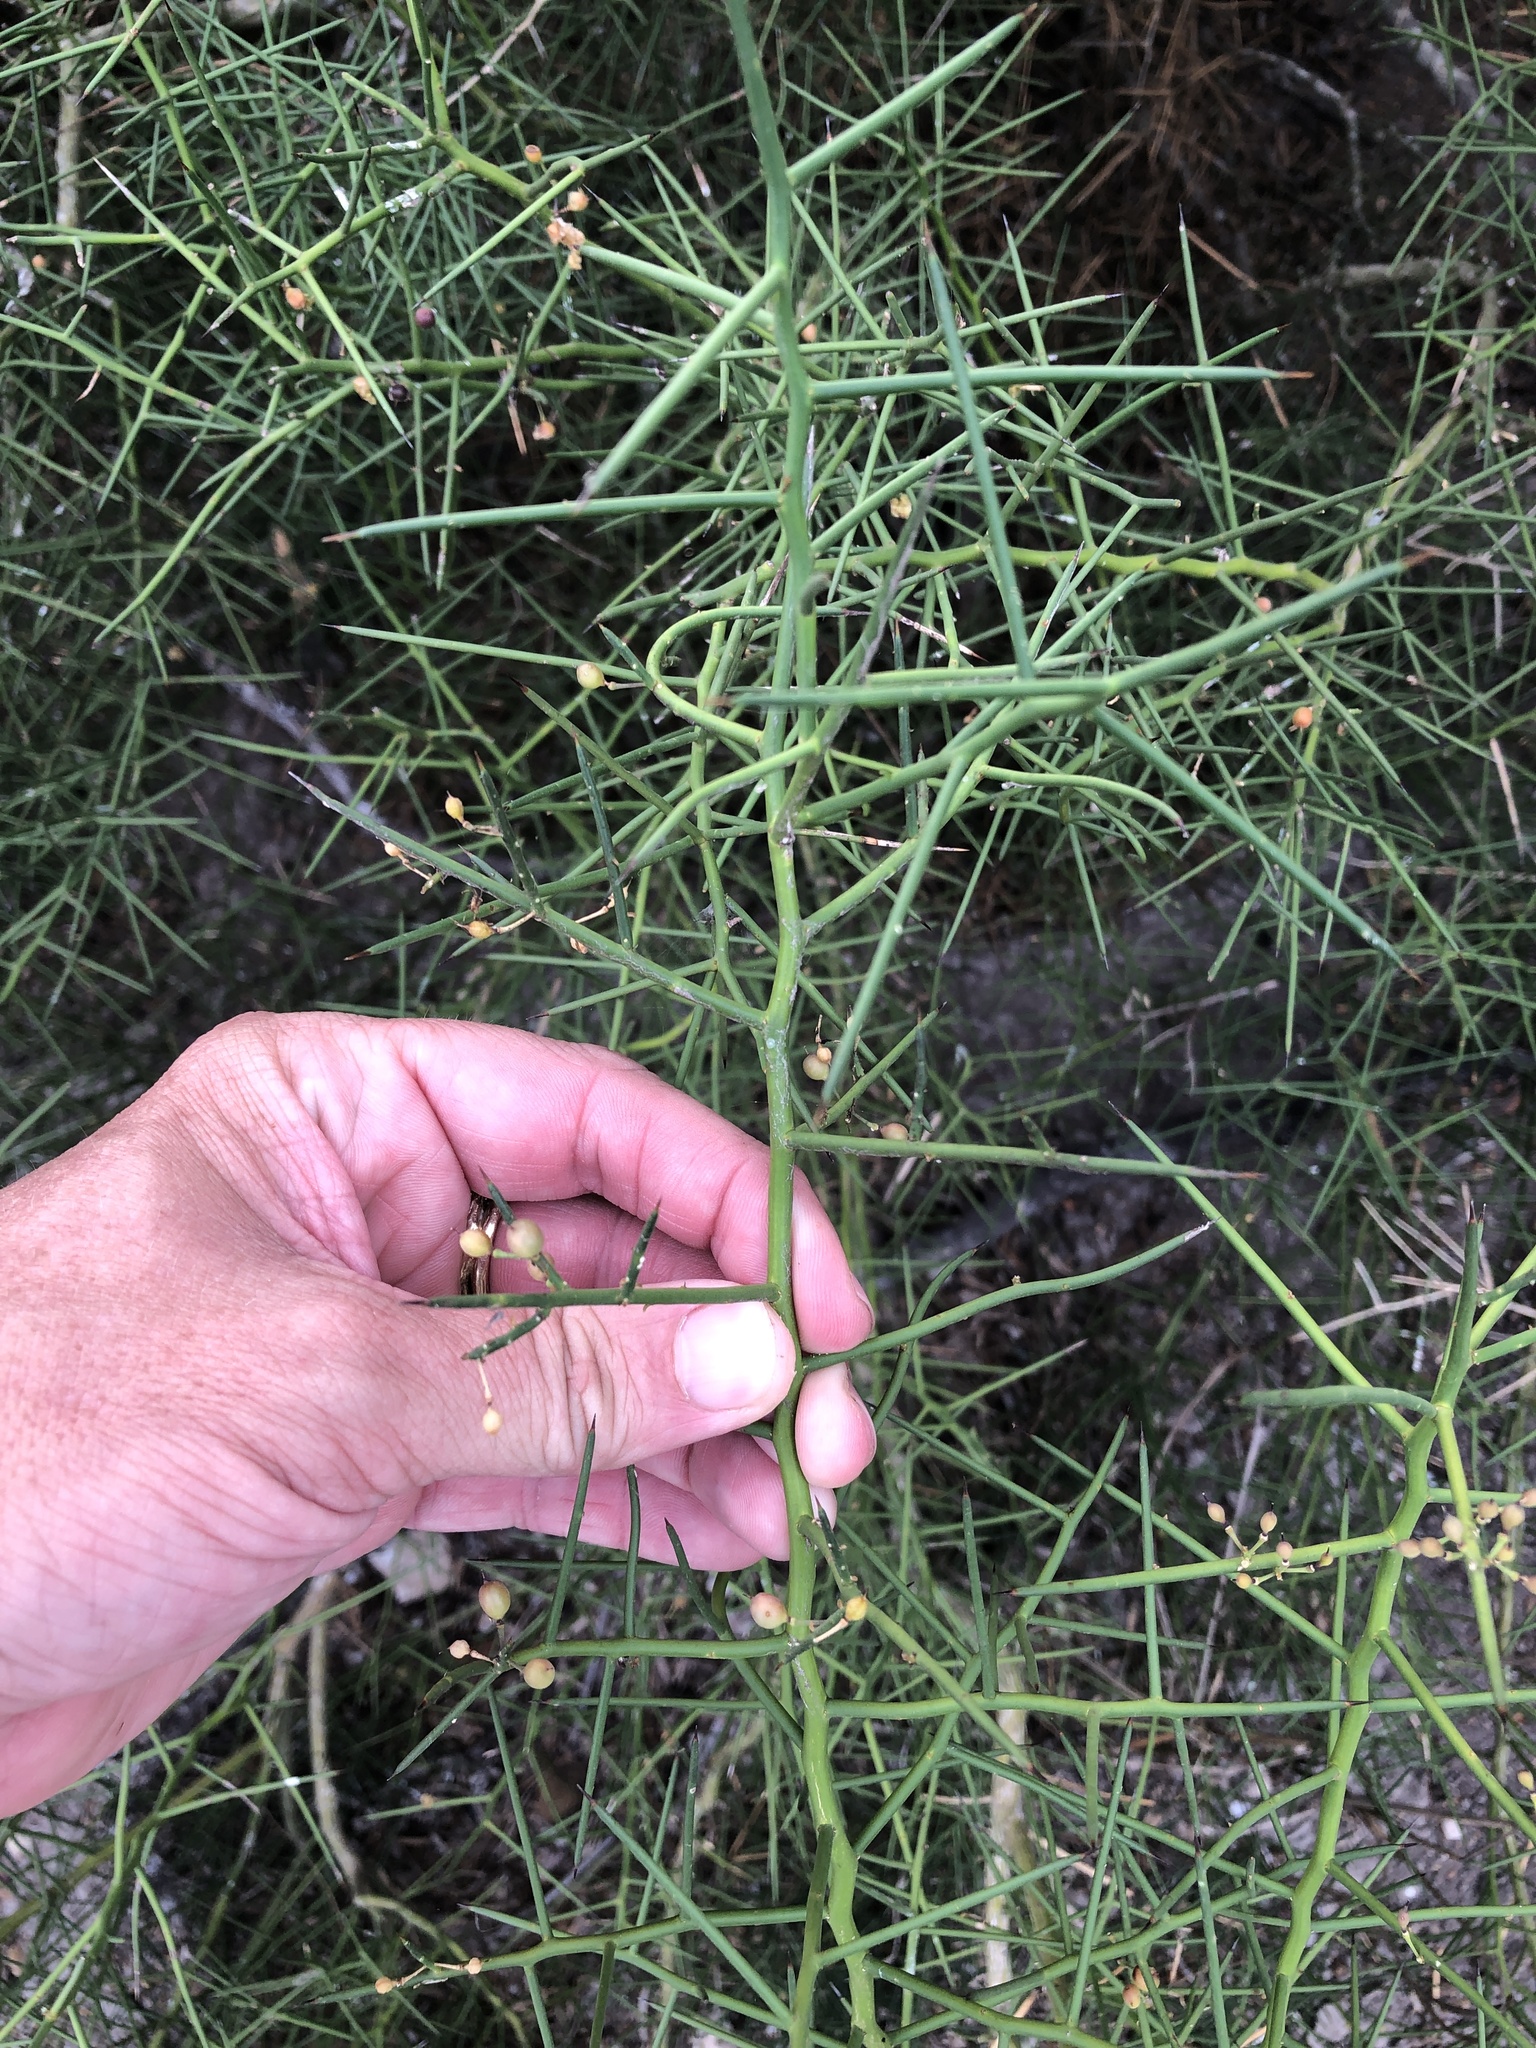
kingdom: Plantae
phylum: Tracheophyta
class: Magnoliopsida
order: Brassicales
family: Koeberliniaceae
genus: Koeberlinia
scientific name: Koeberlinia spinosa
